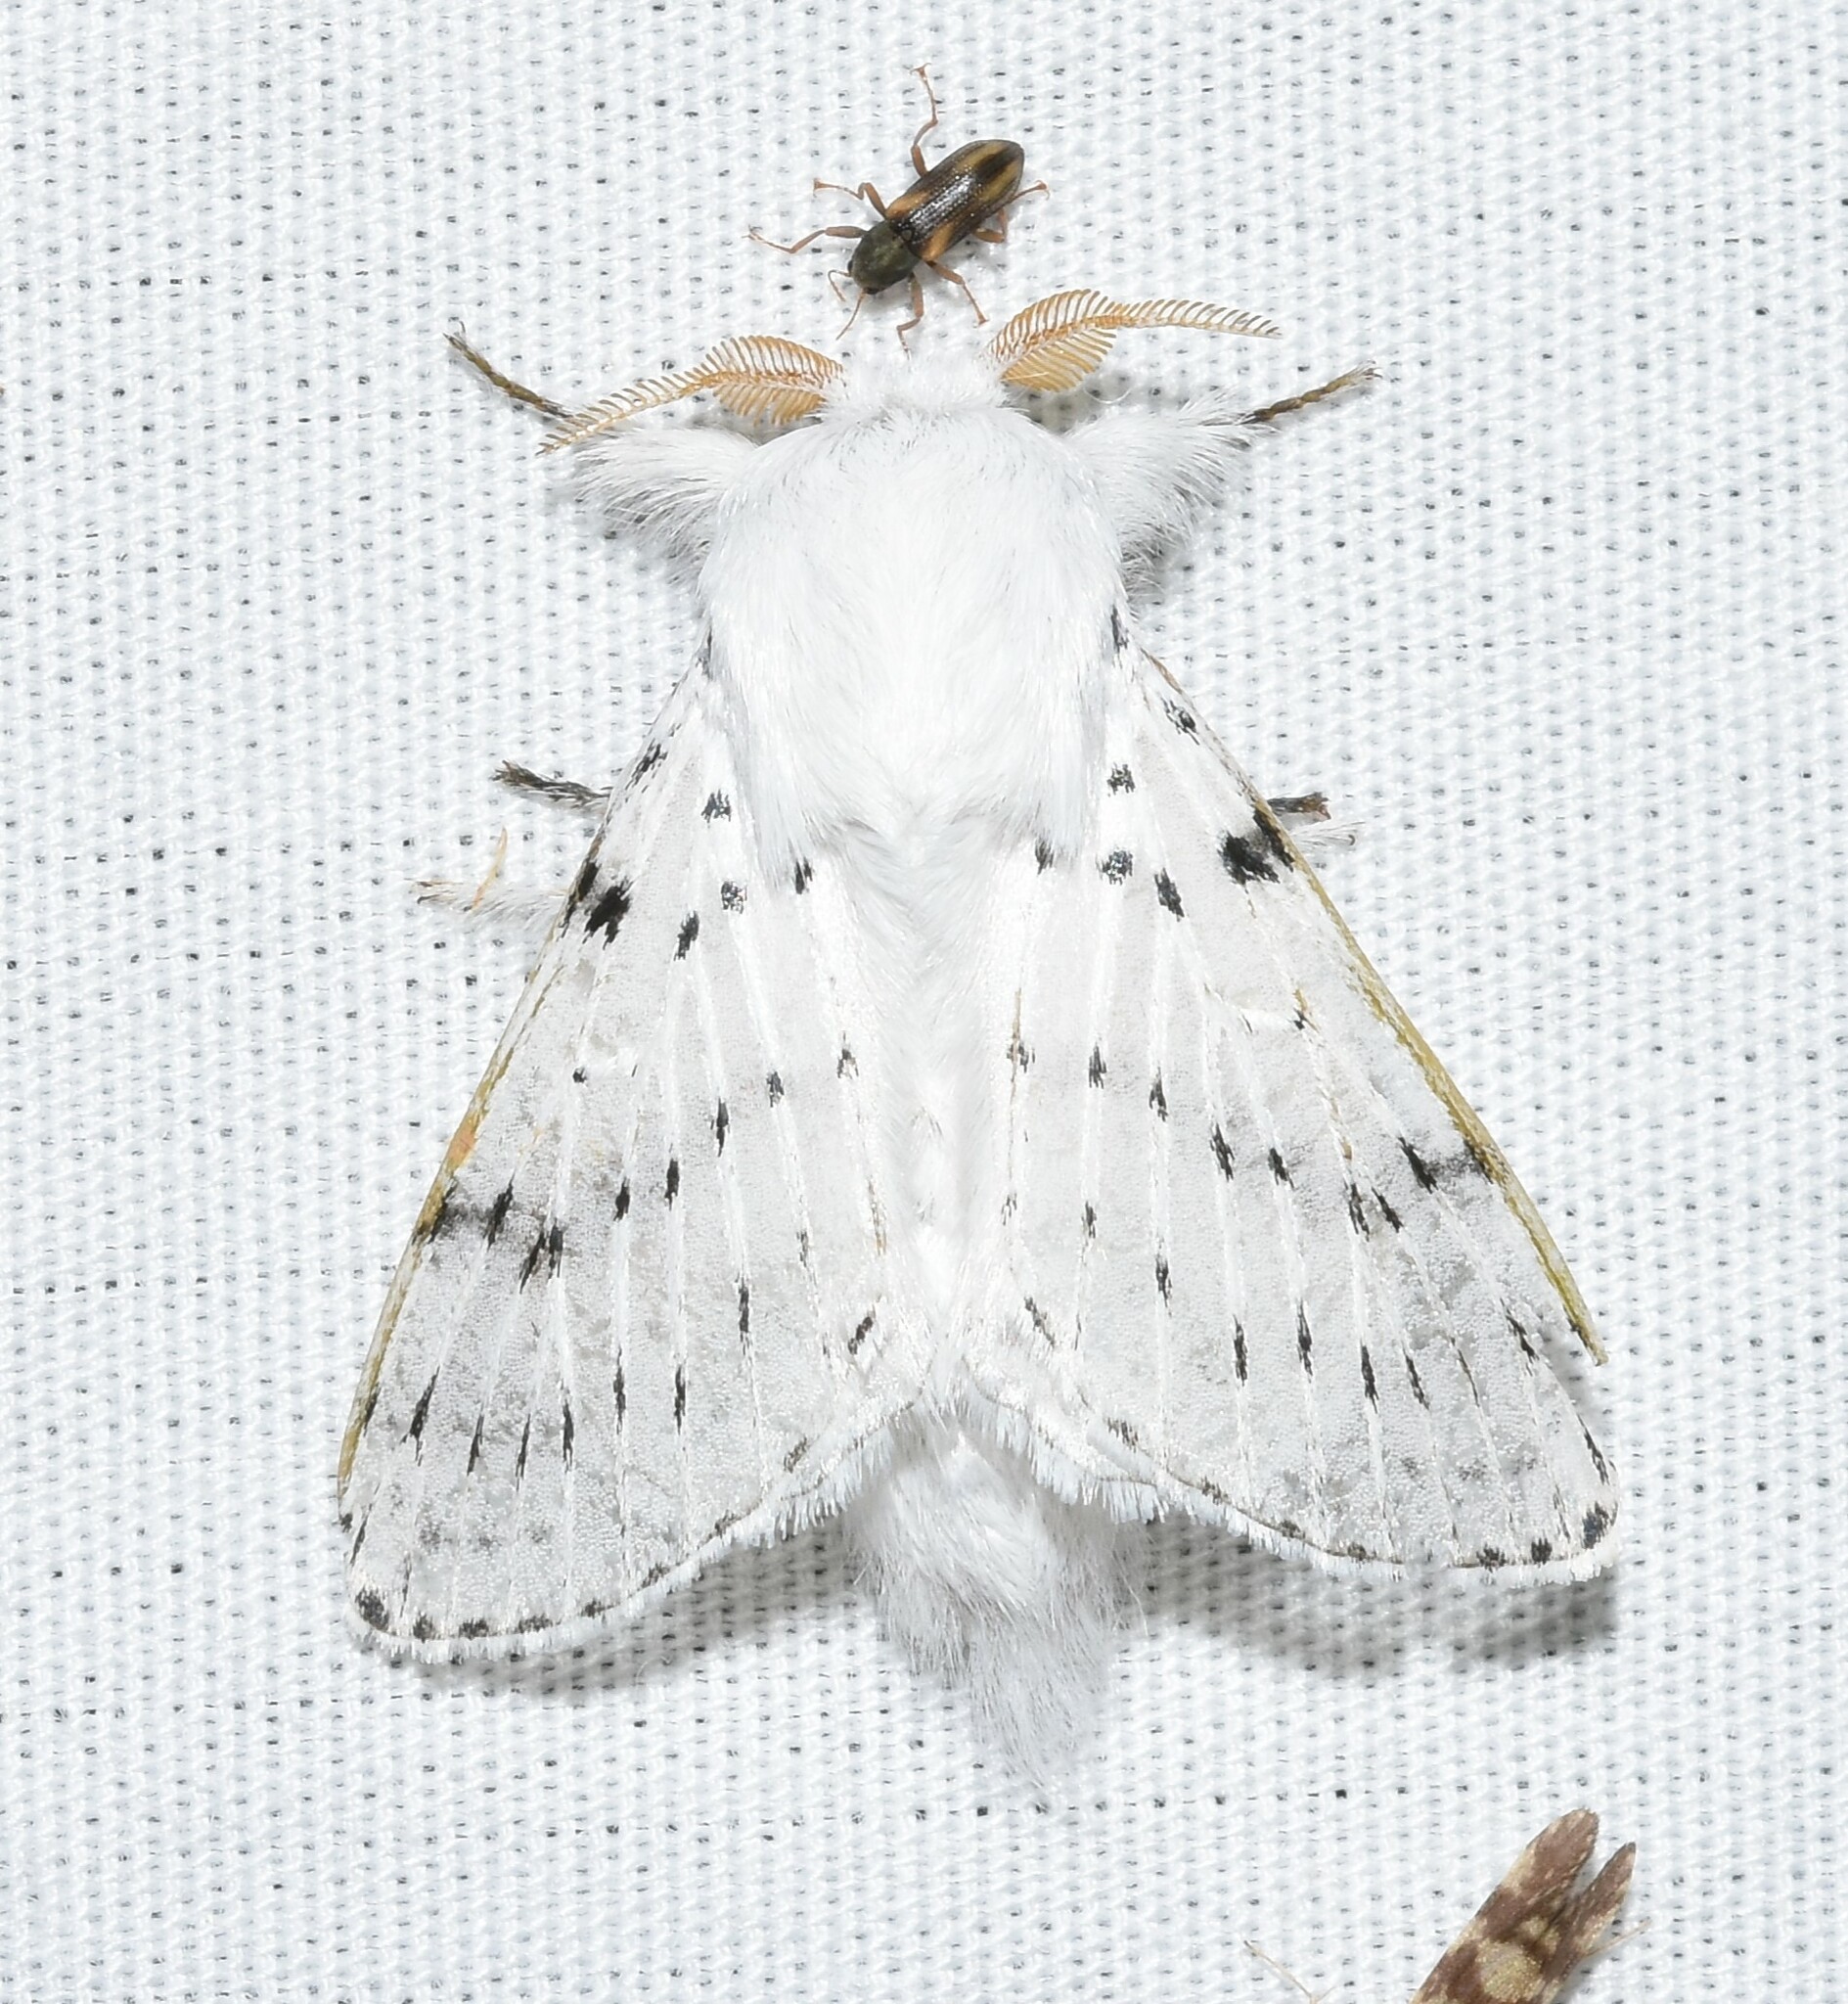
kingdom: Animalia
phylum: Arthropoda
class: Insecta
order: Lepidoptera
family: Lasiocampidae
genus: Artace
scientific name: Artace cribrarius
